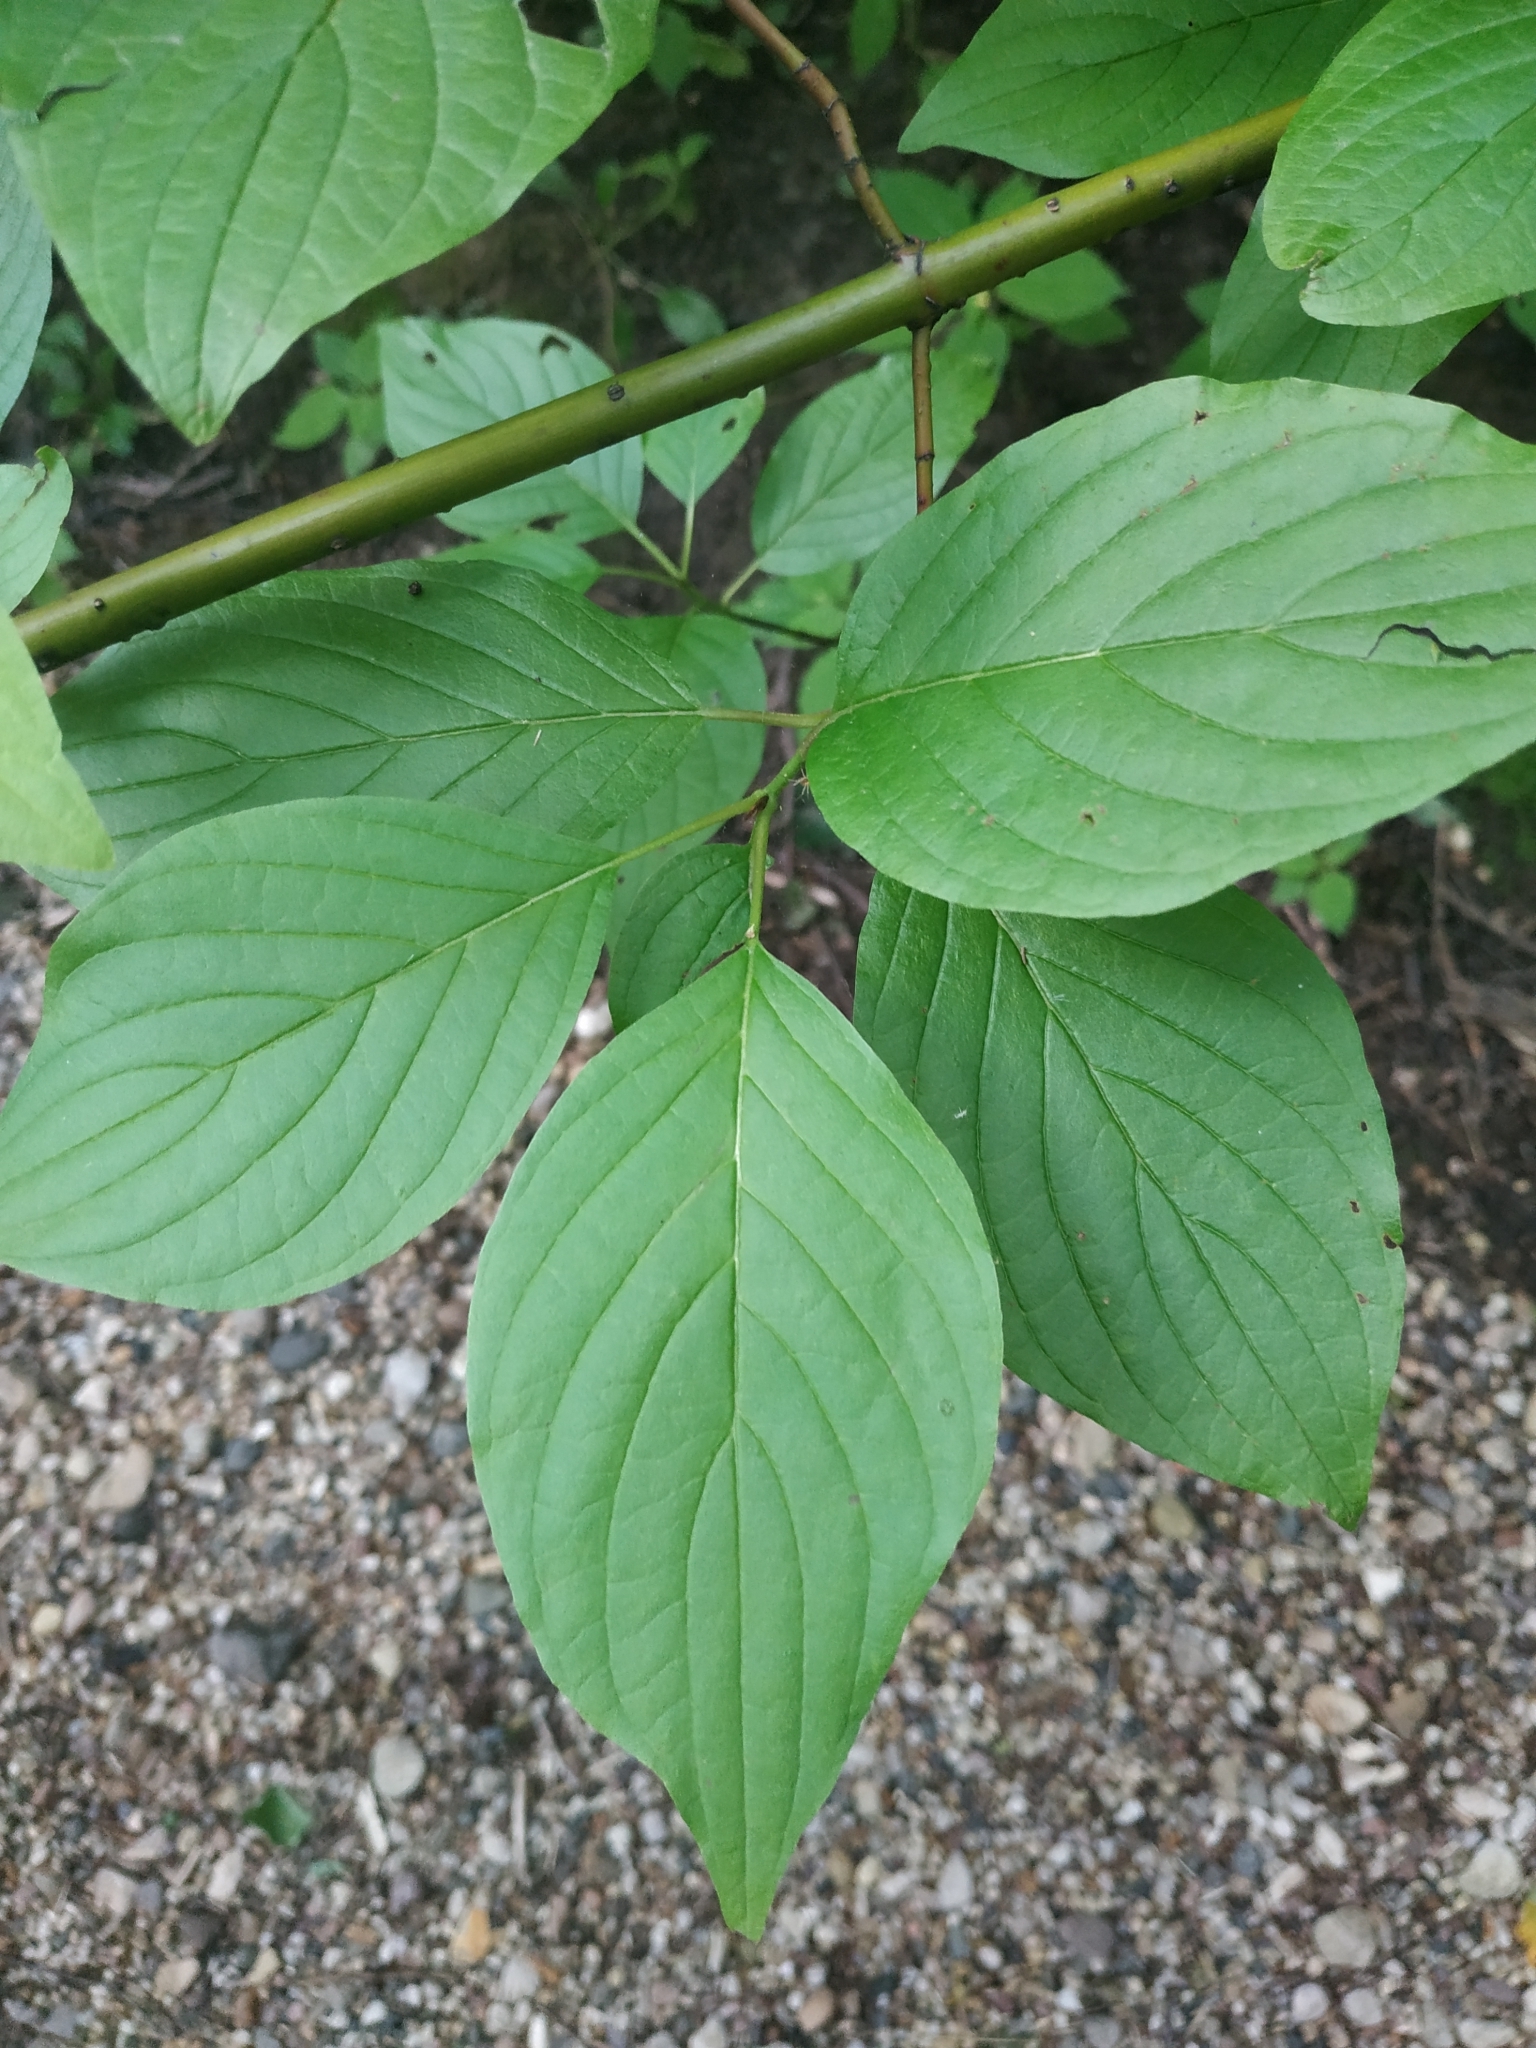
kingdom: Plantae
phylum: Tracheophyta
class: Magnoliopsida
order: Cornales
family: Cornaceae
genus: Cornus
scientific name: Cornus alba
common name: White dogwood
